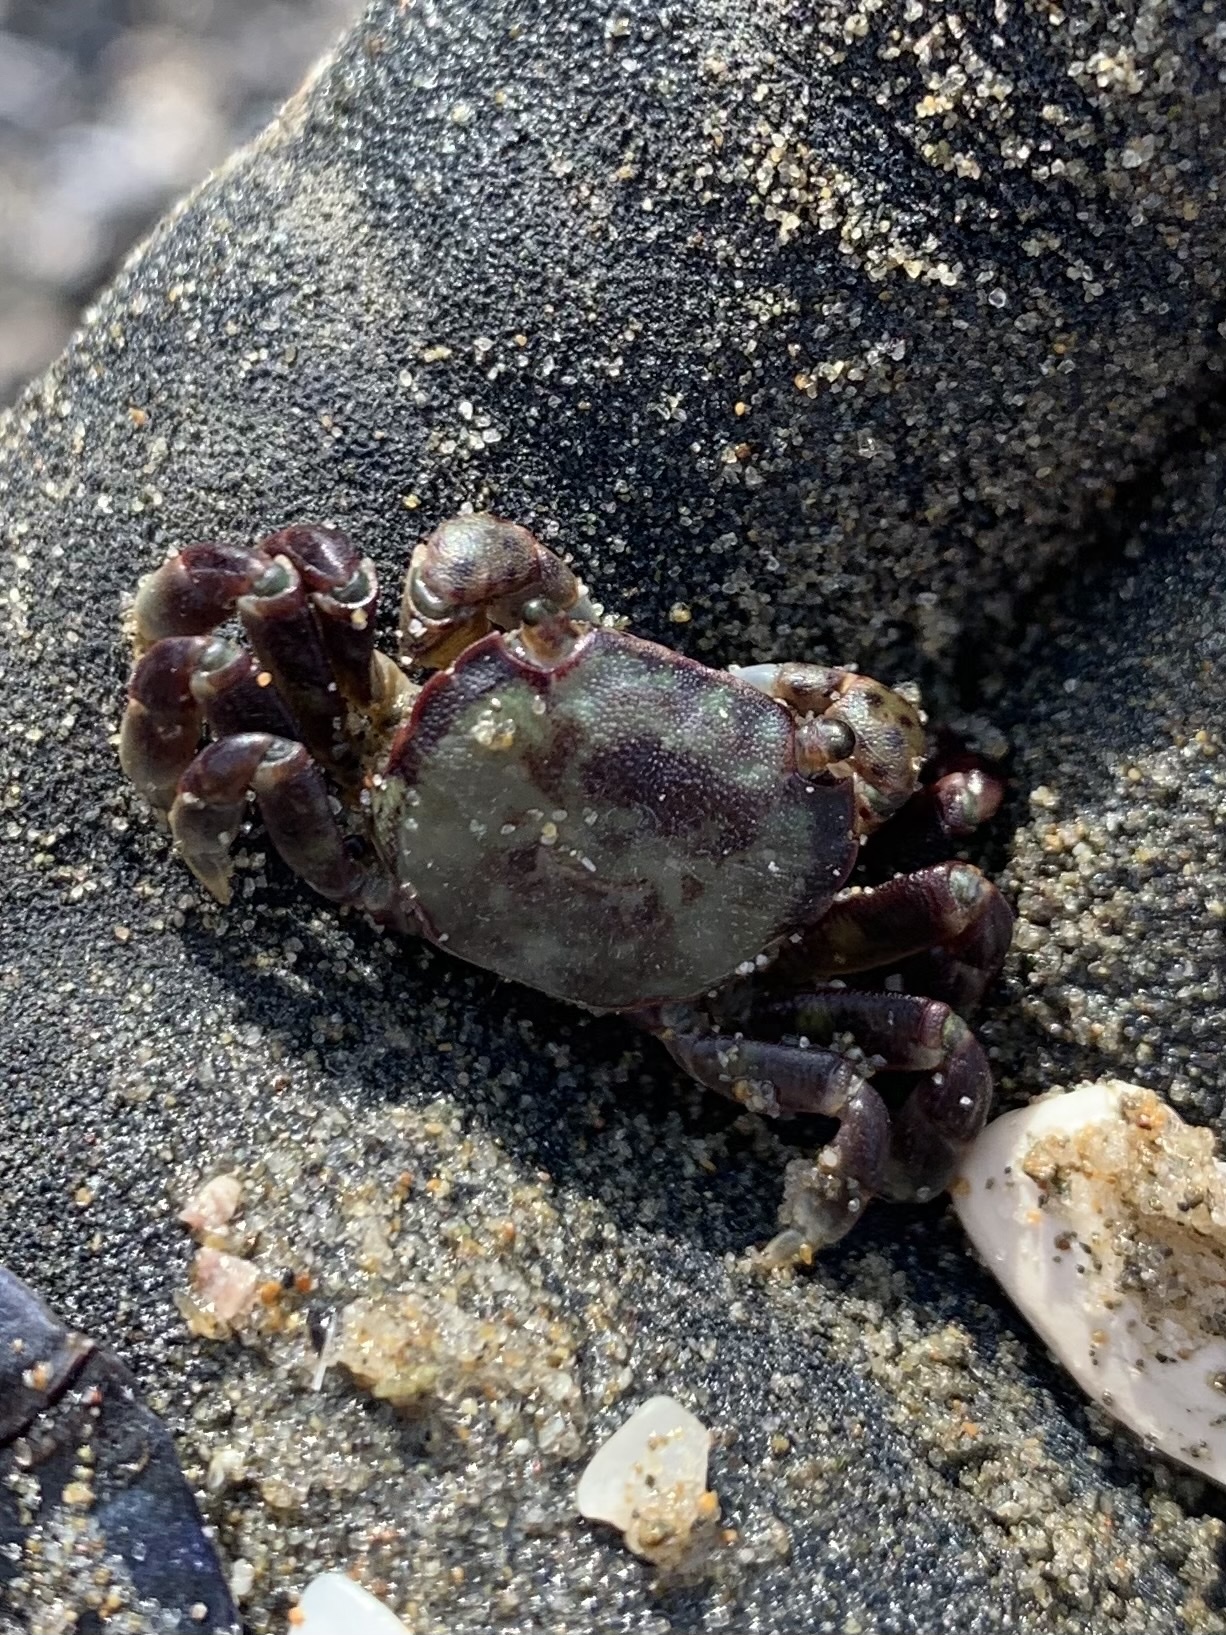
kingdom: Animalia
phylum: Arthropoda
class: Malacostraca
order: Decapoda
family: Varunidae
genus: Hemigrapsus
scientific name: Hemigrapsus nudus
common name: Purple shore crab
